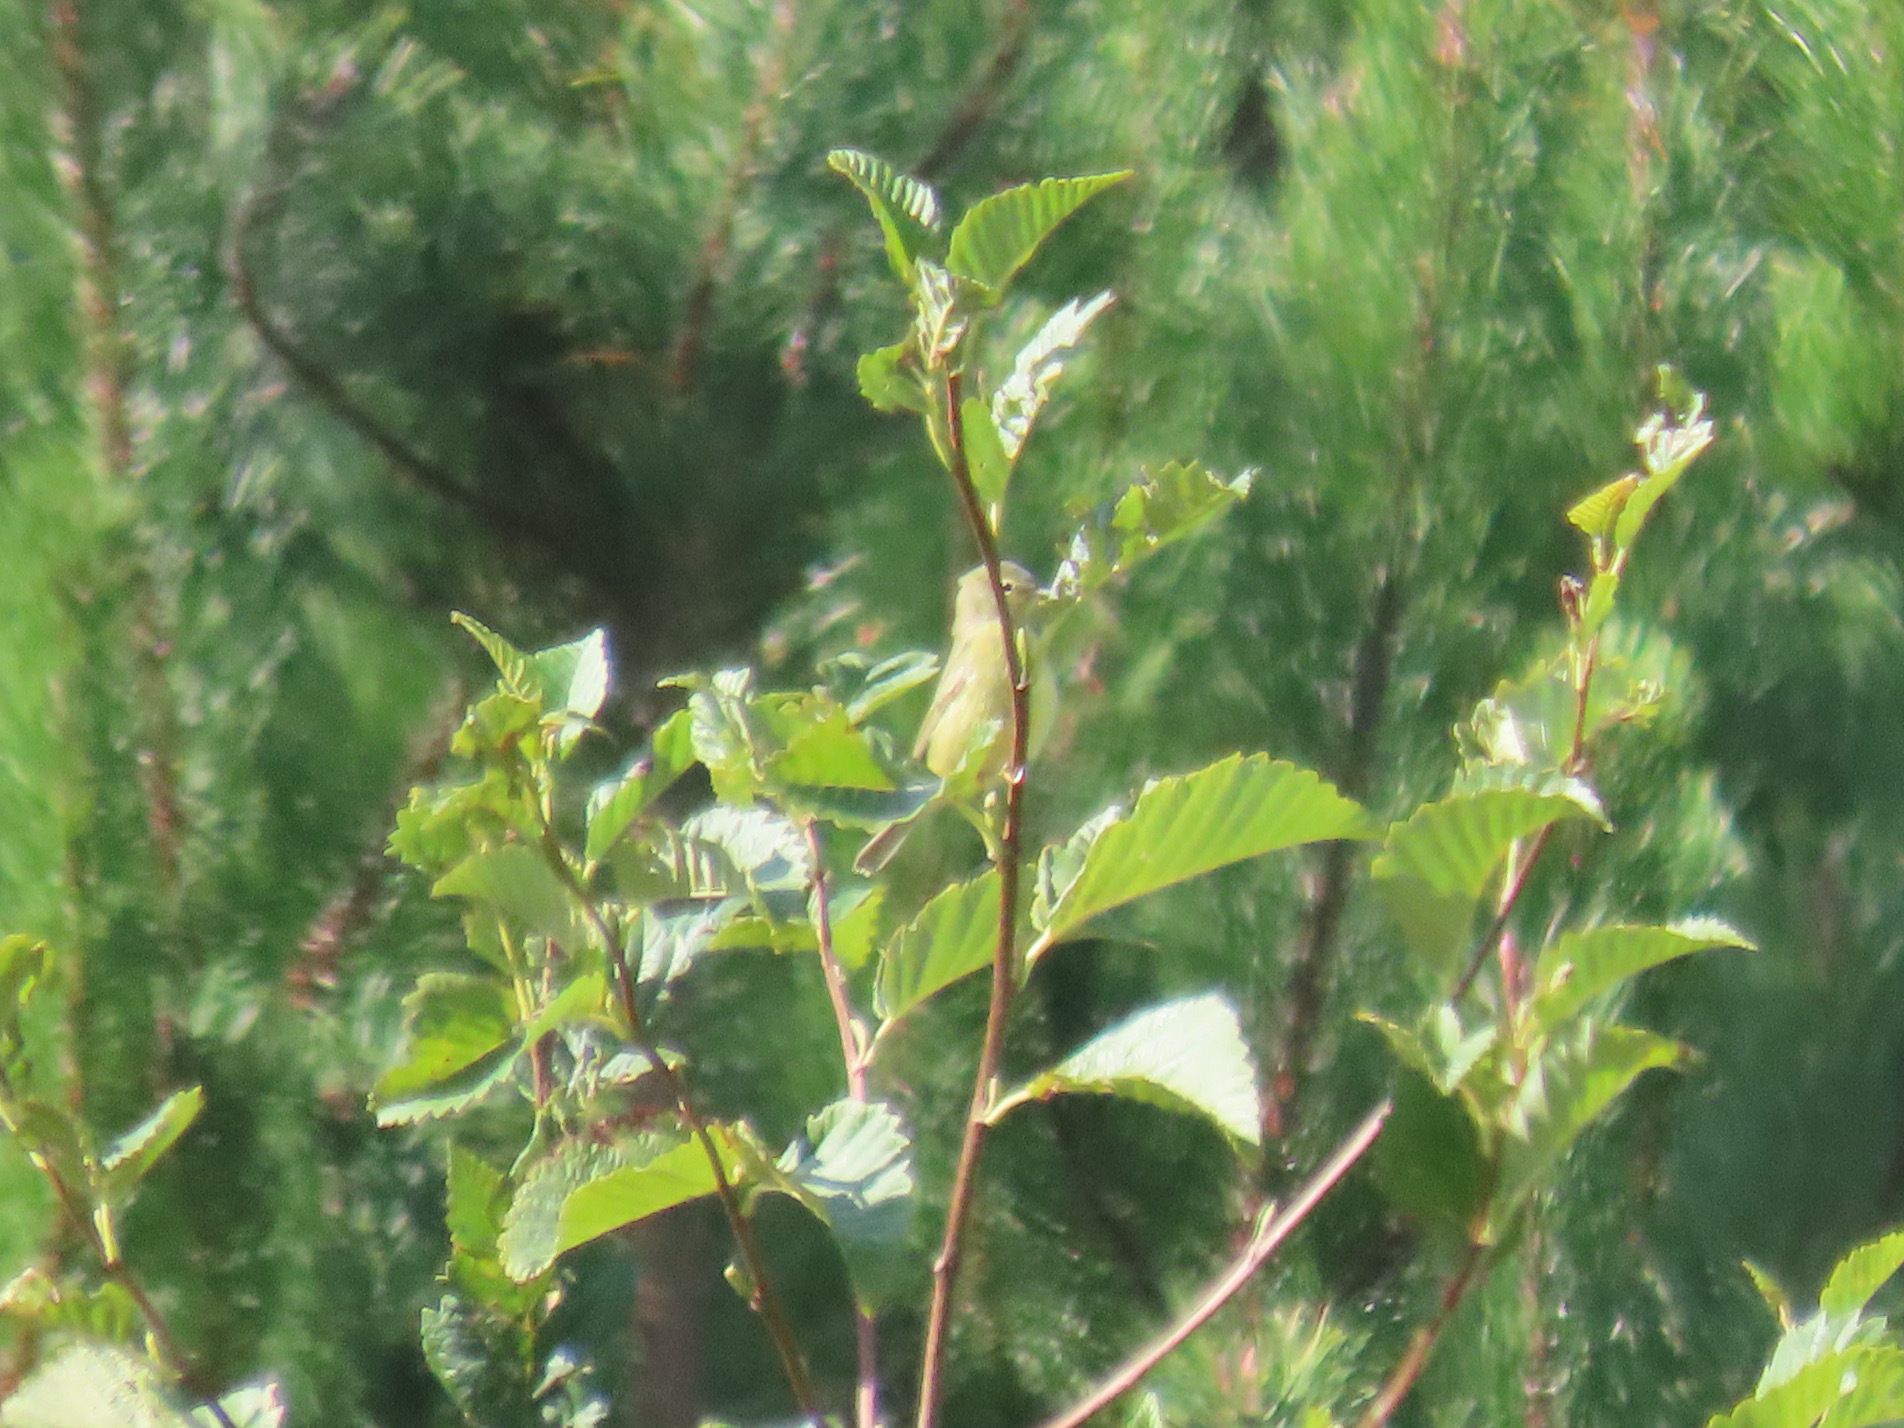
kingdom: Animalia
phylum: Chordata
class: Aves
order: Passeriformes
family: Parulidae
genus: Leiothlypis
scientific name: Leiothlypis celata
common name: Orange-crowned warbler
